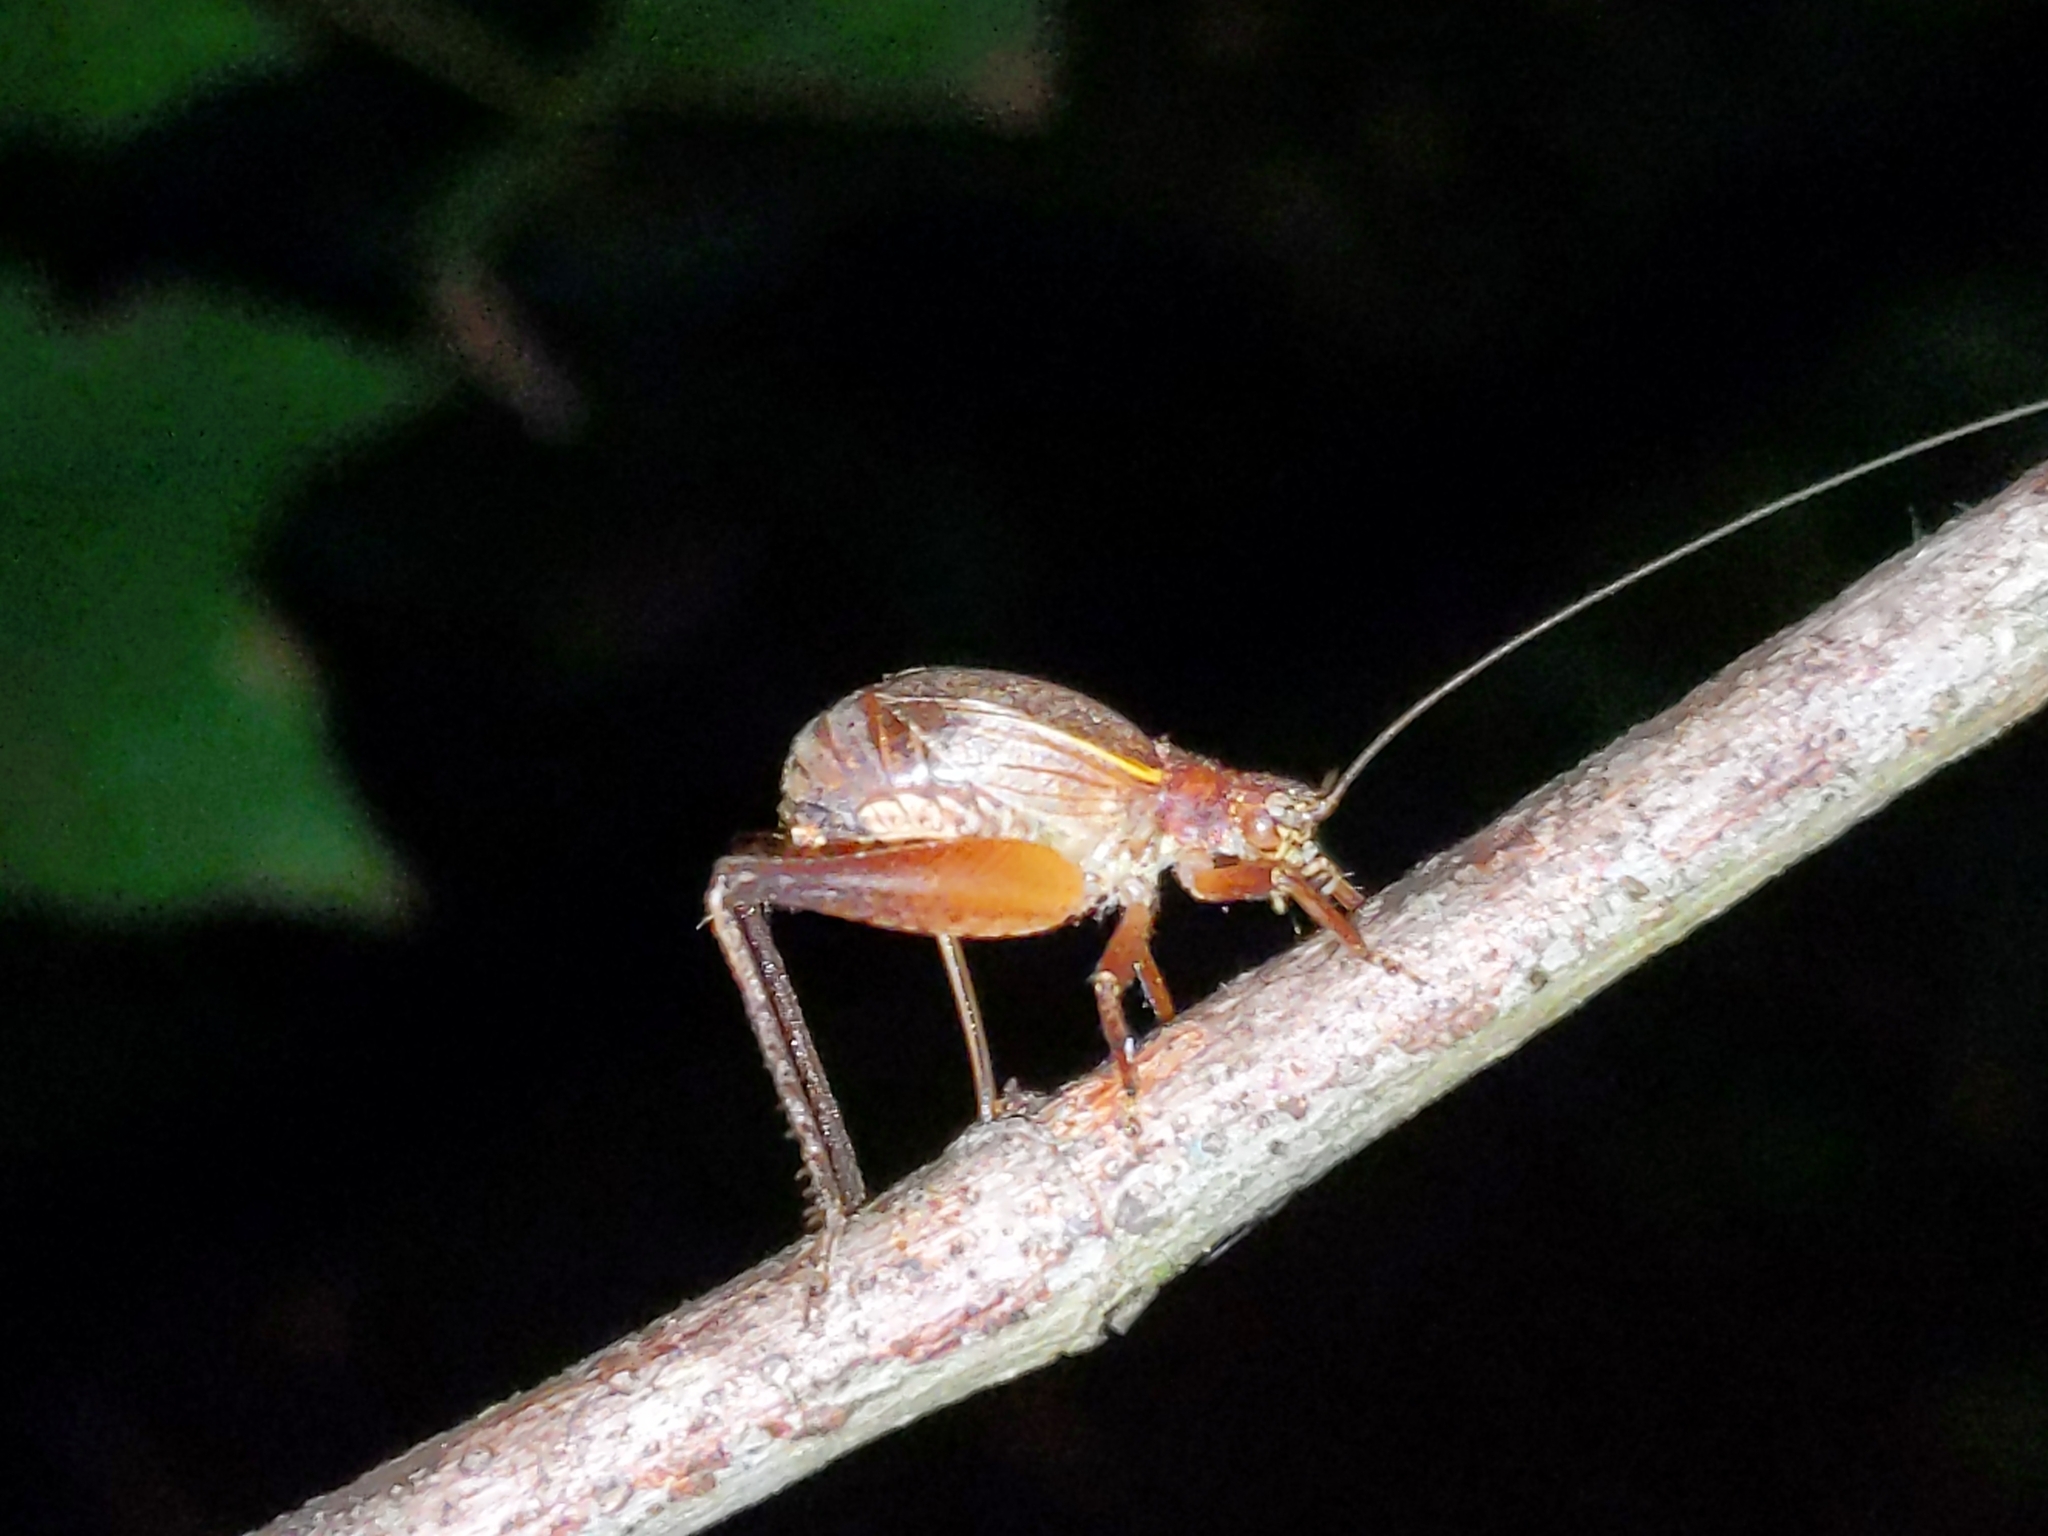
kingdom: Animalia
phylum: Arthropoda
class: Insecta
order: Orthoptera
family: Gryllidae
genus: Hapithus
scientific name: Hapithus agitator
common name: Restless bush cricket
